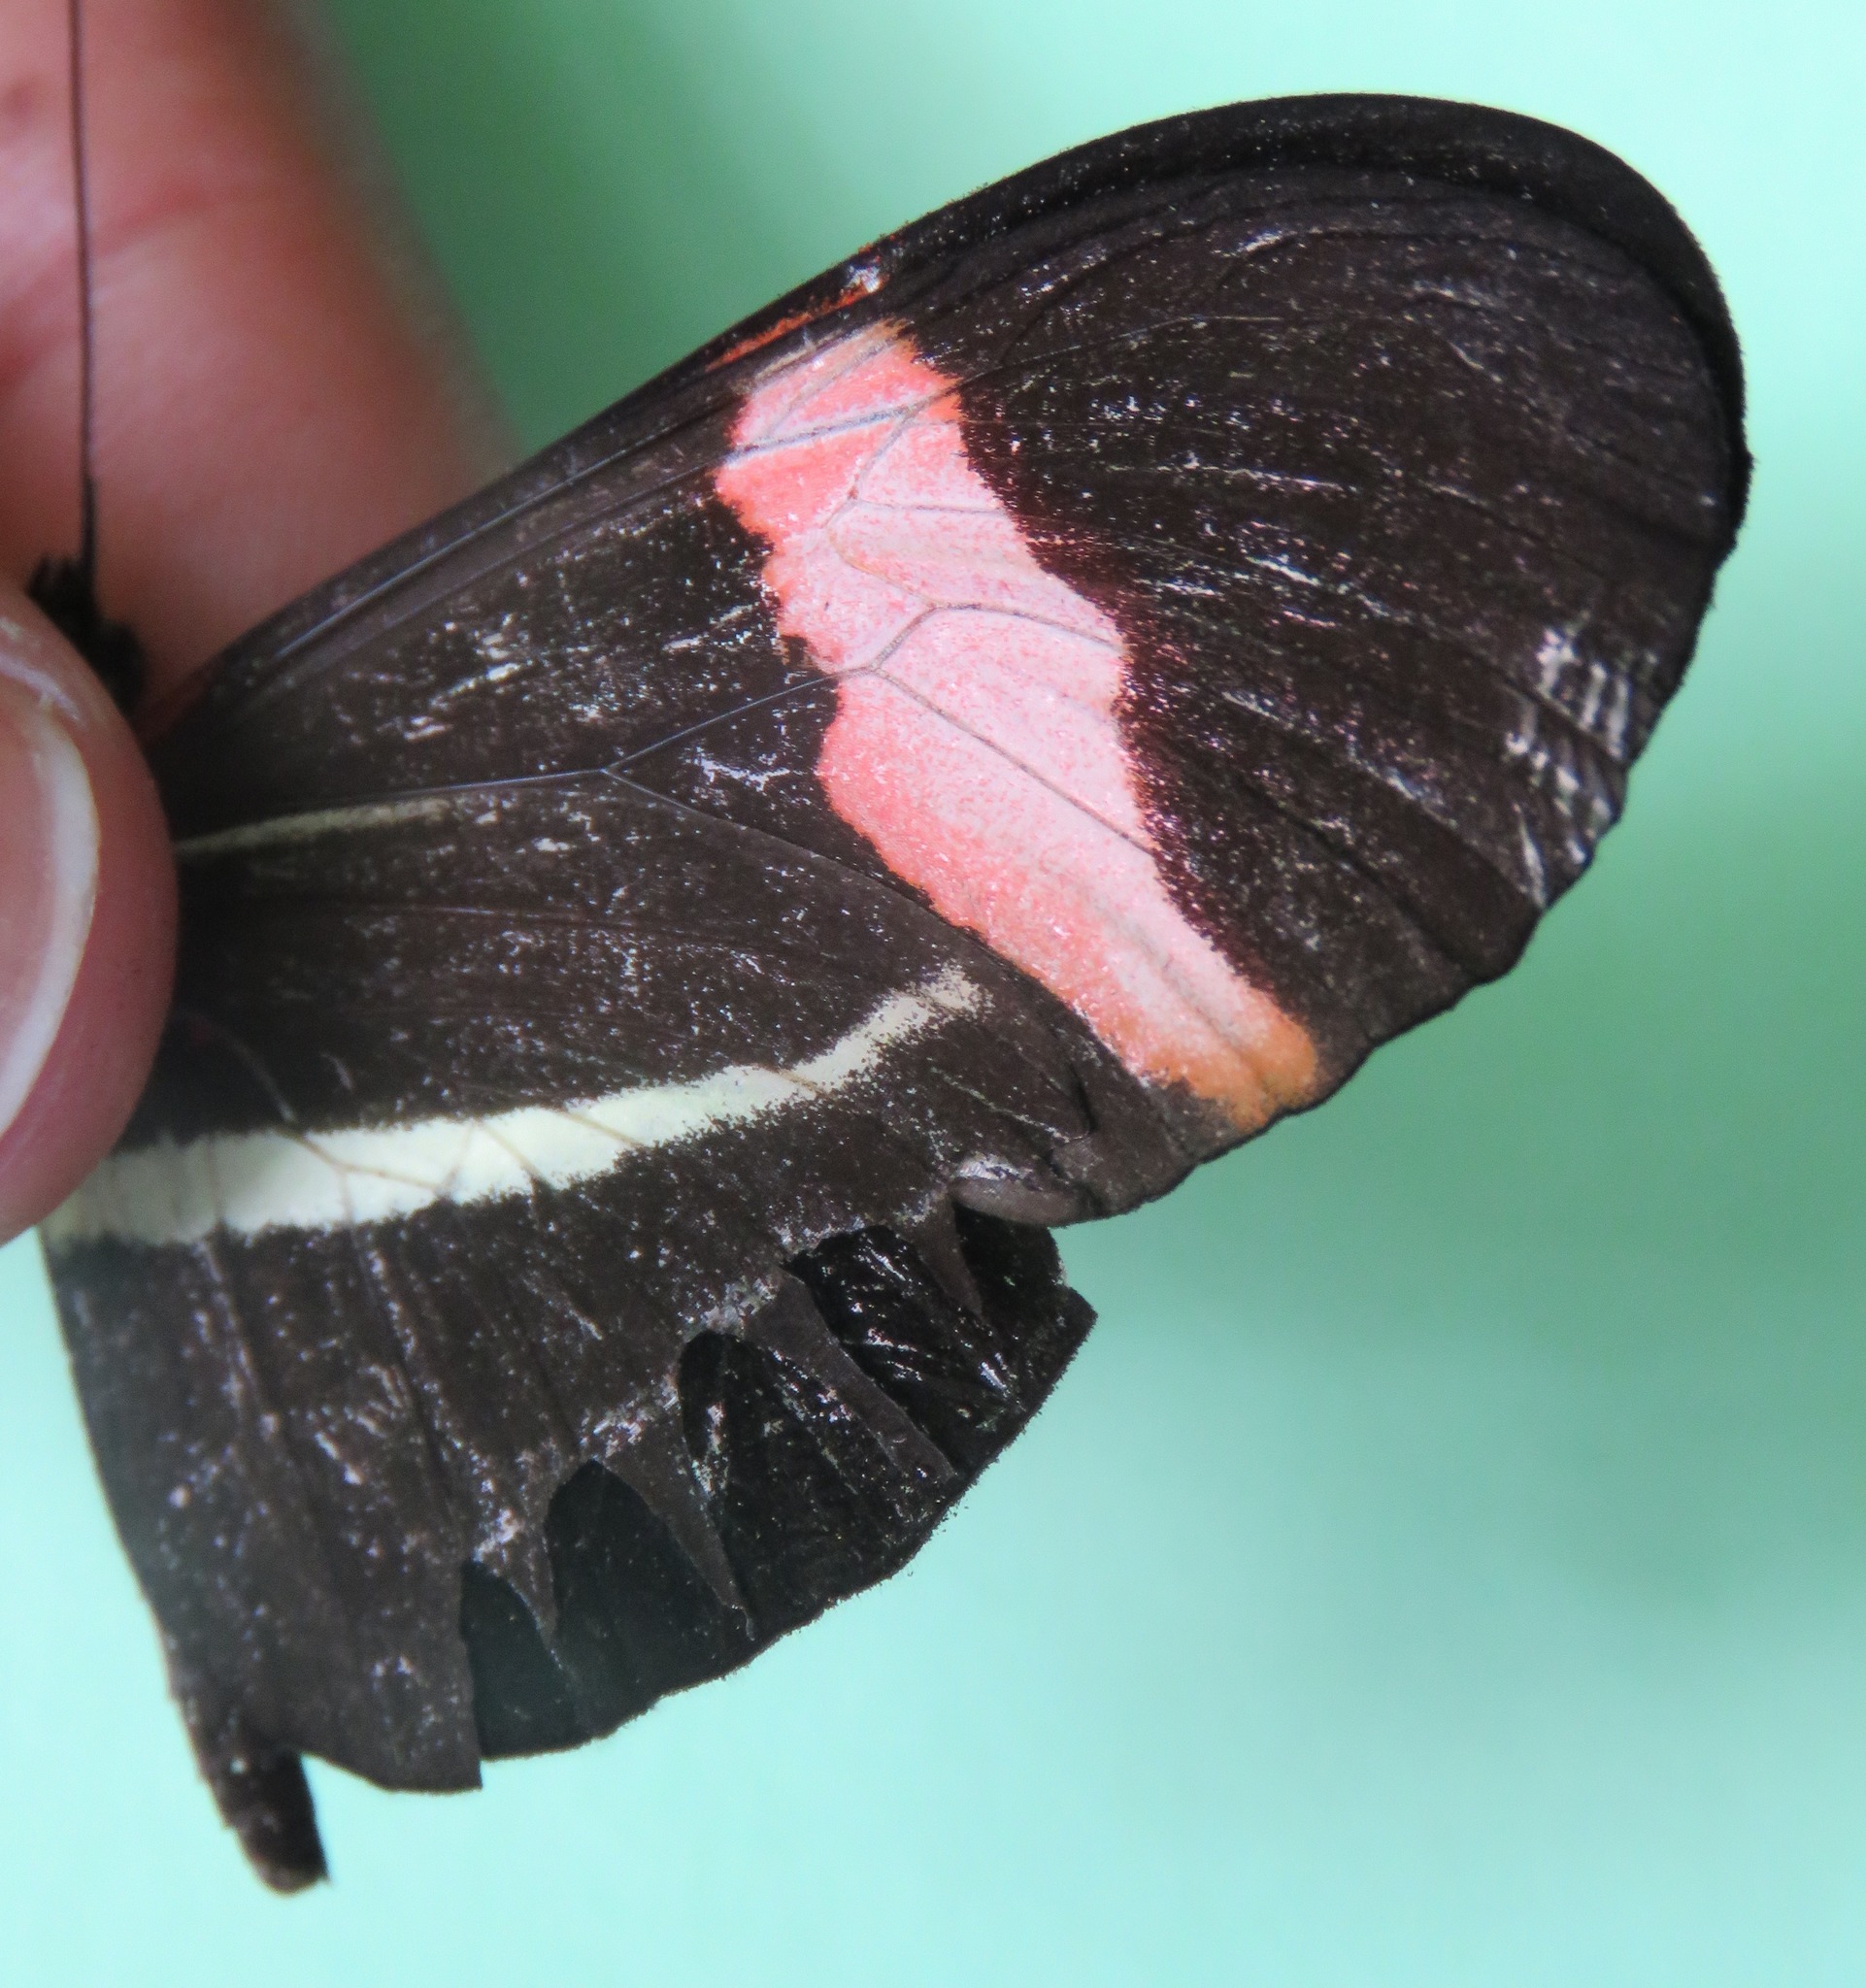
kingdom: Animalia
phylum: Arthropoda
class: Insecta
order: Lepidoptera
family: Nymphalidae
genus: Heliconius
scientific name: Heliconius erato
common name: Common patch longwing
